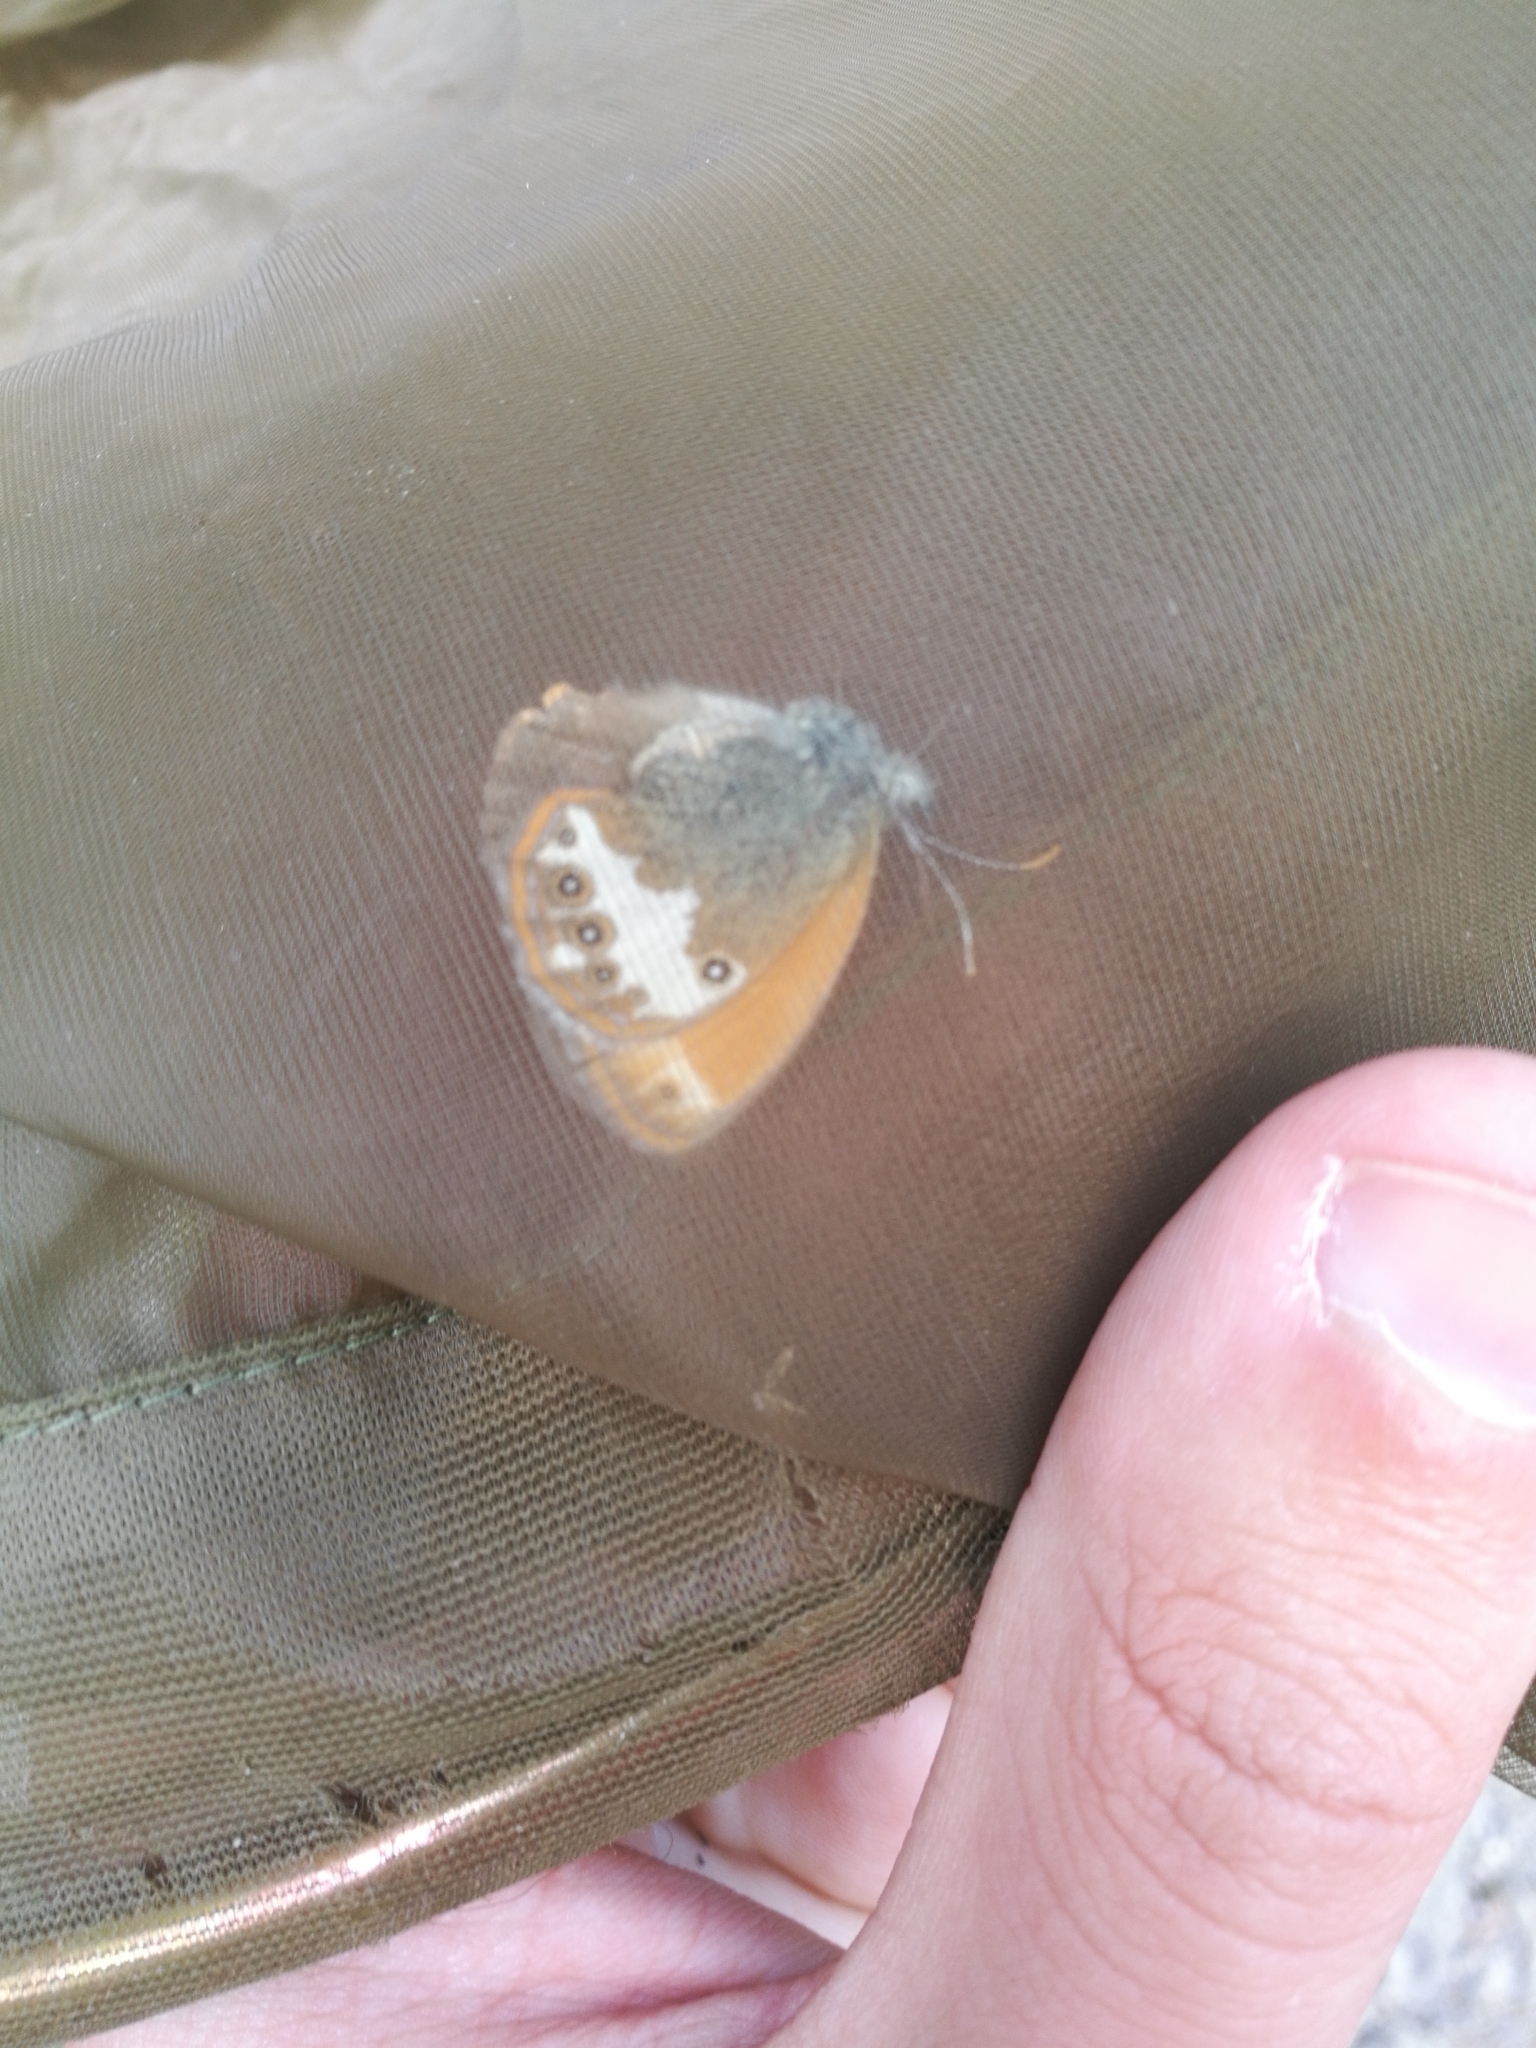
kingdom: Animalia
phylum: Arthropoda
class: Insecta
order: Lepidoptera
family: Nymphalidae
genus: Coenonympha
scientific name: Coenonympha arcania
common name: Pearly heath
